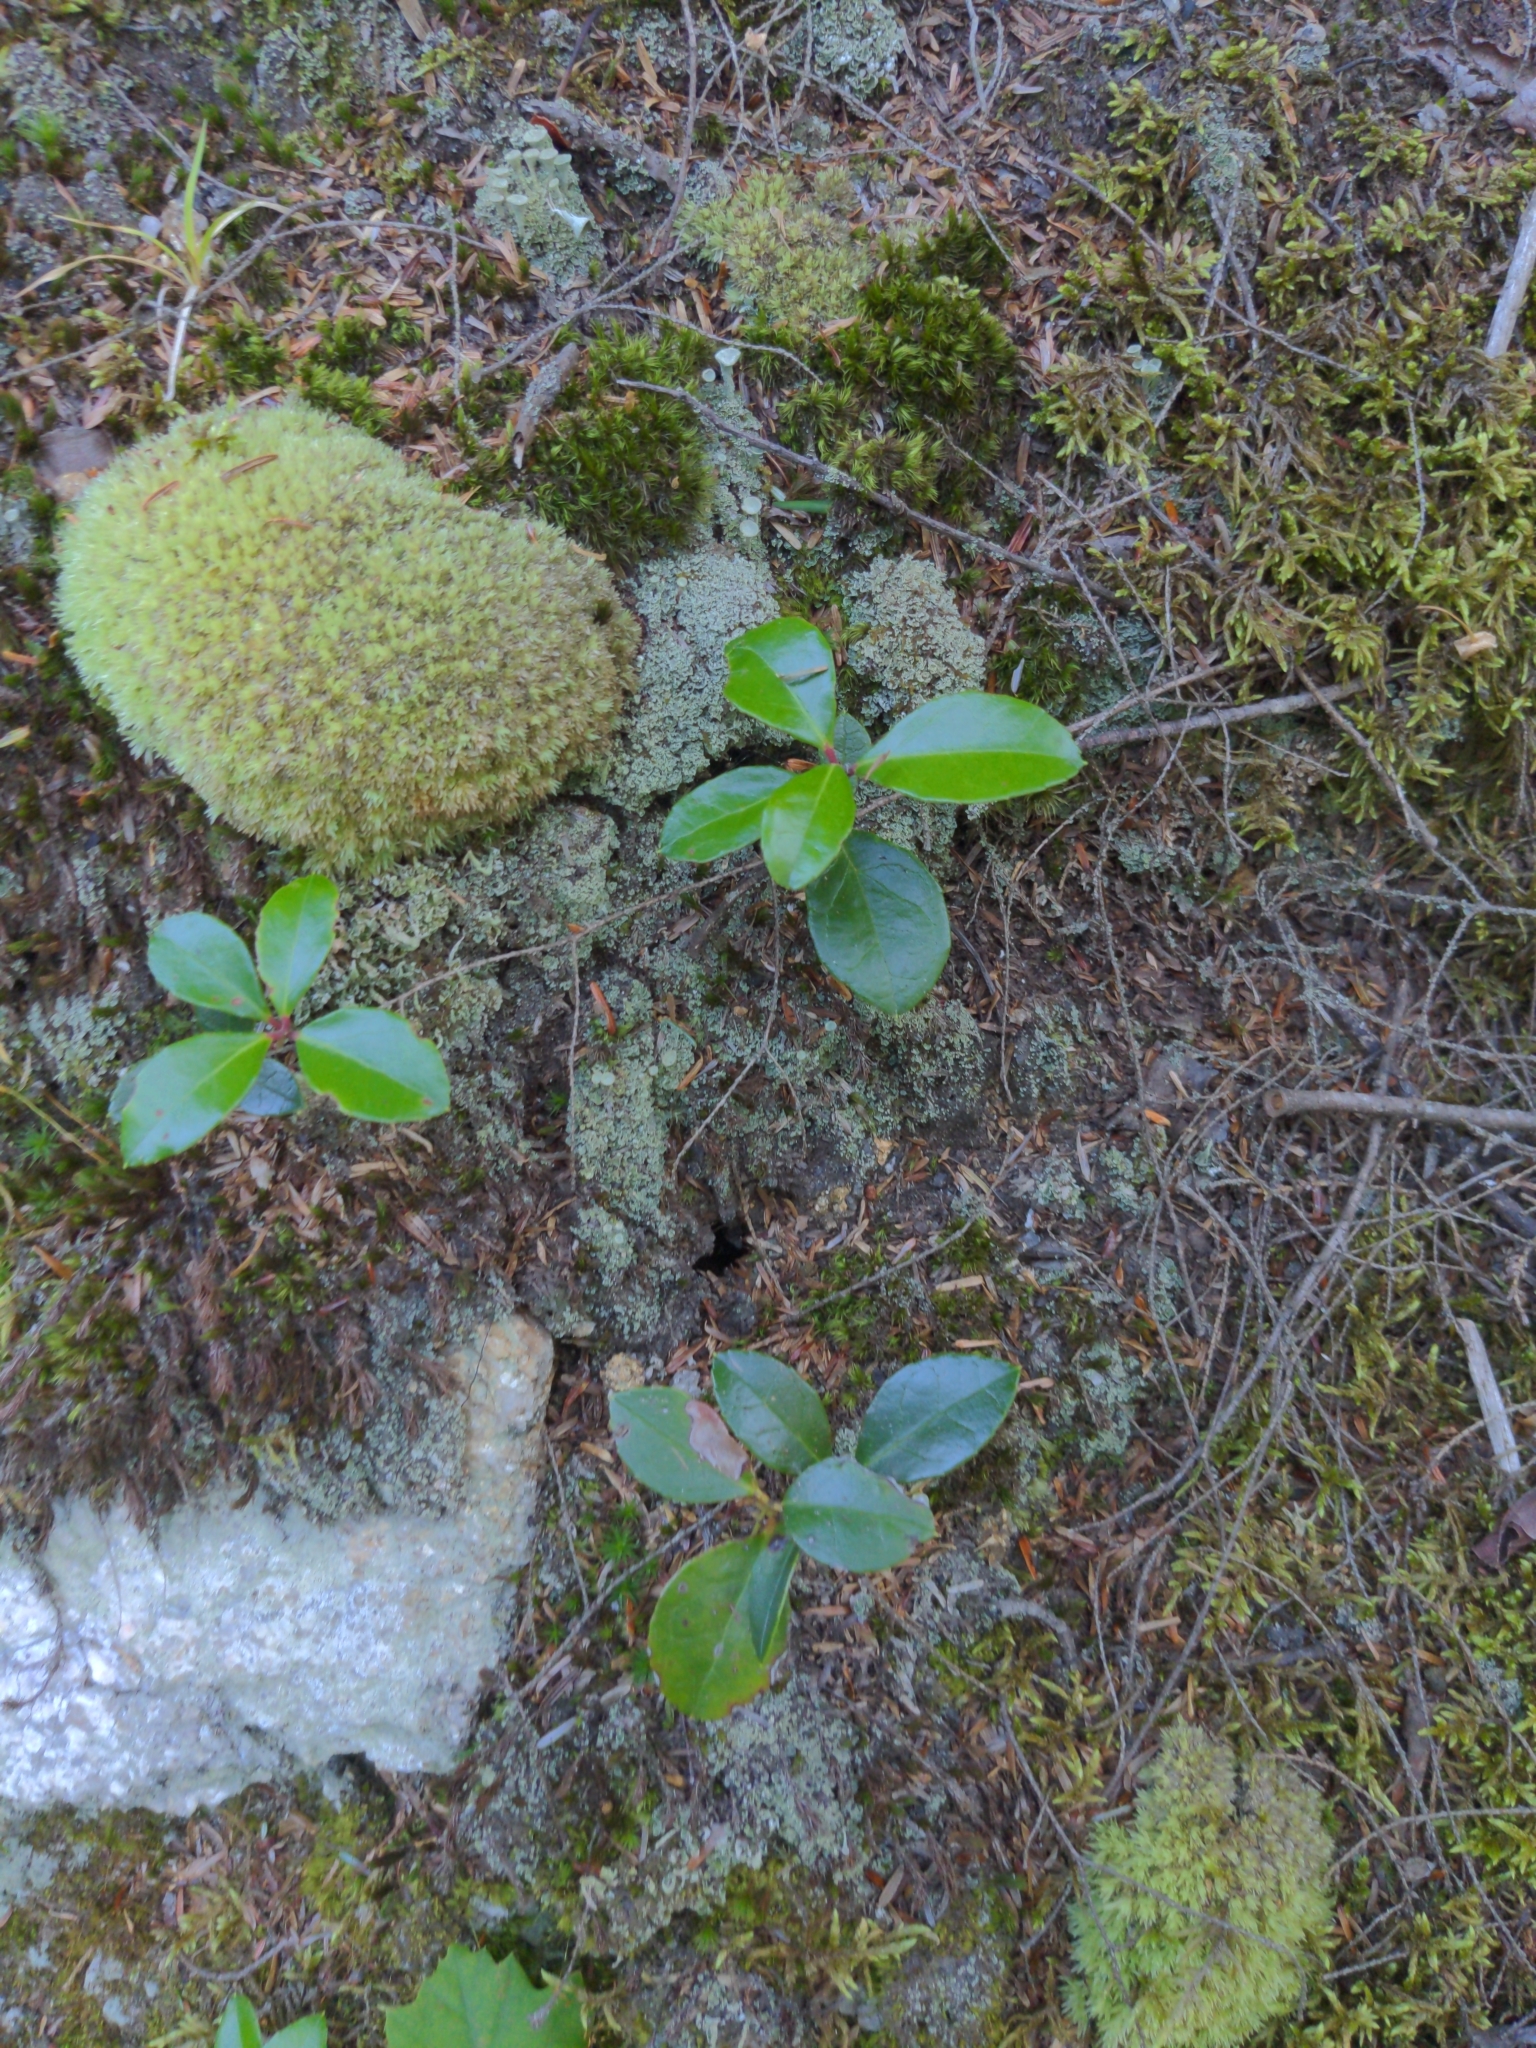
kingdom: Plantae
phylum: Tracheophyta
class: Magnoliopsida
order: Ericales
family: Ericaceae
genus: Gaultheria
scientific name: Gaultheria procumbens
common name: Checkerberry
